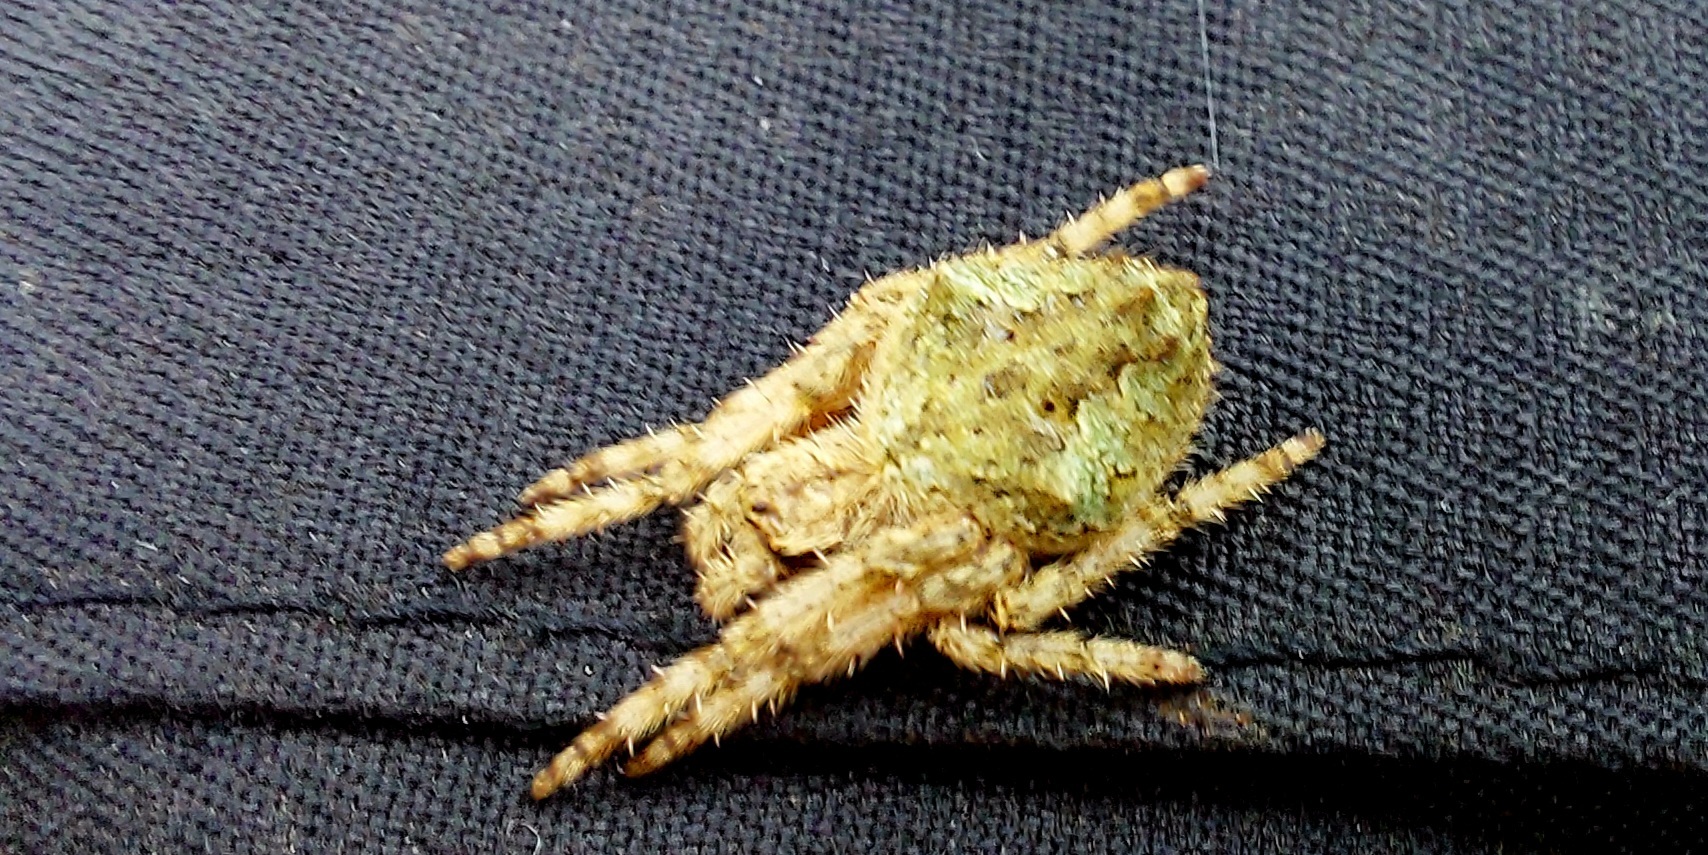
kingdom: Animalia
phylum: Arthropoda
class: Arachnida
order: Araneae
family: Araneidae
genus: Eriophora
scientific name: Eriophora pustulosa
